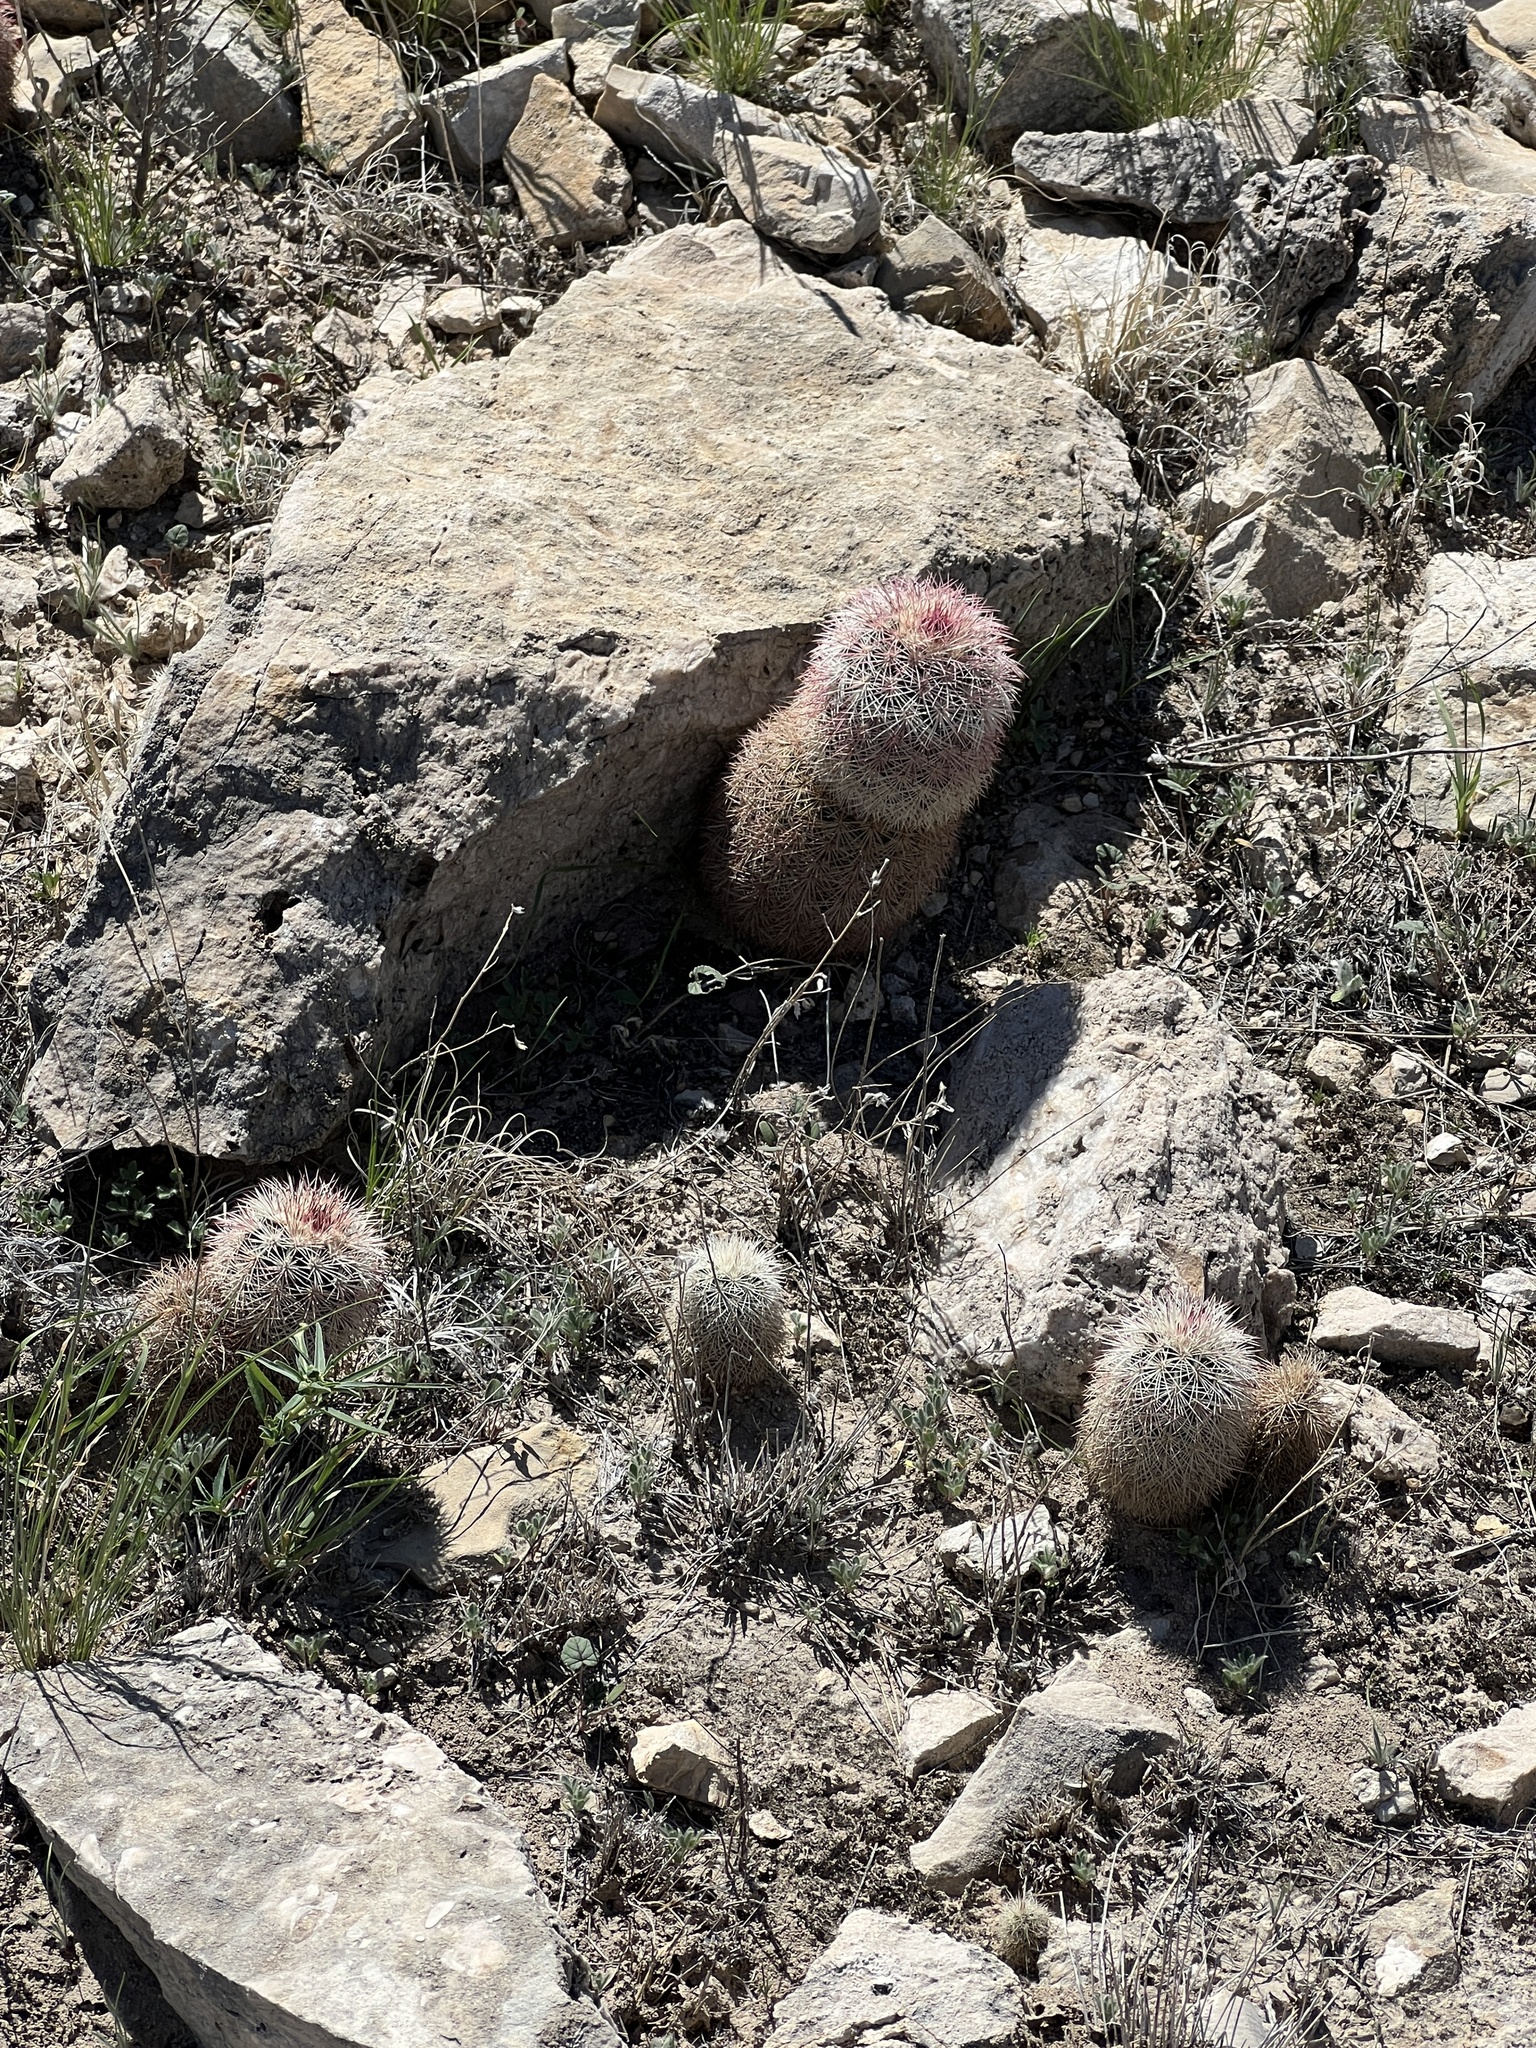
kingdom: Plantae
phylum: Tracheophyta
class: Magnoliopsida
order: Caryophyllales
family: Cactaceae
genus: Echinocereus
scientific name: Echinocereus dasyacanthus
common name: Spiny hedgehog cactus
